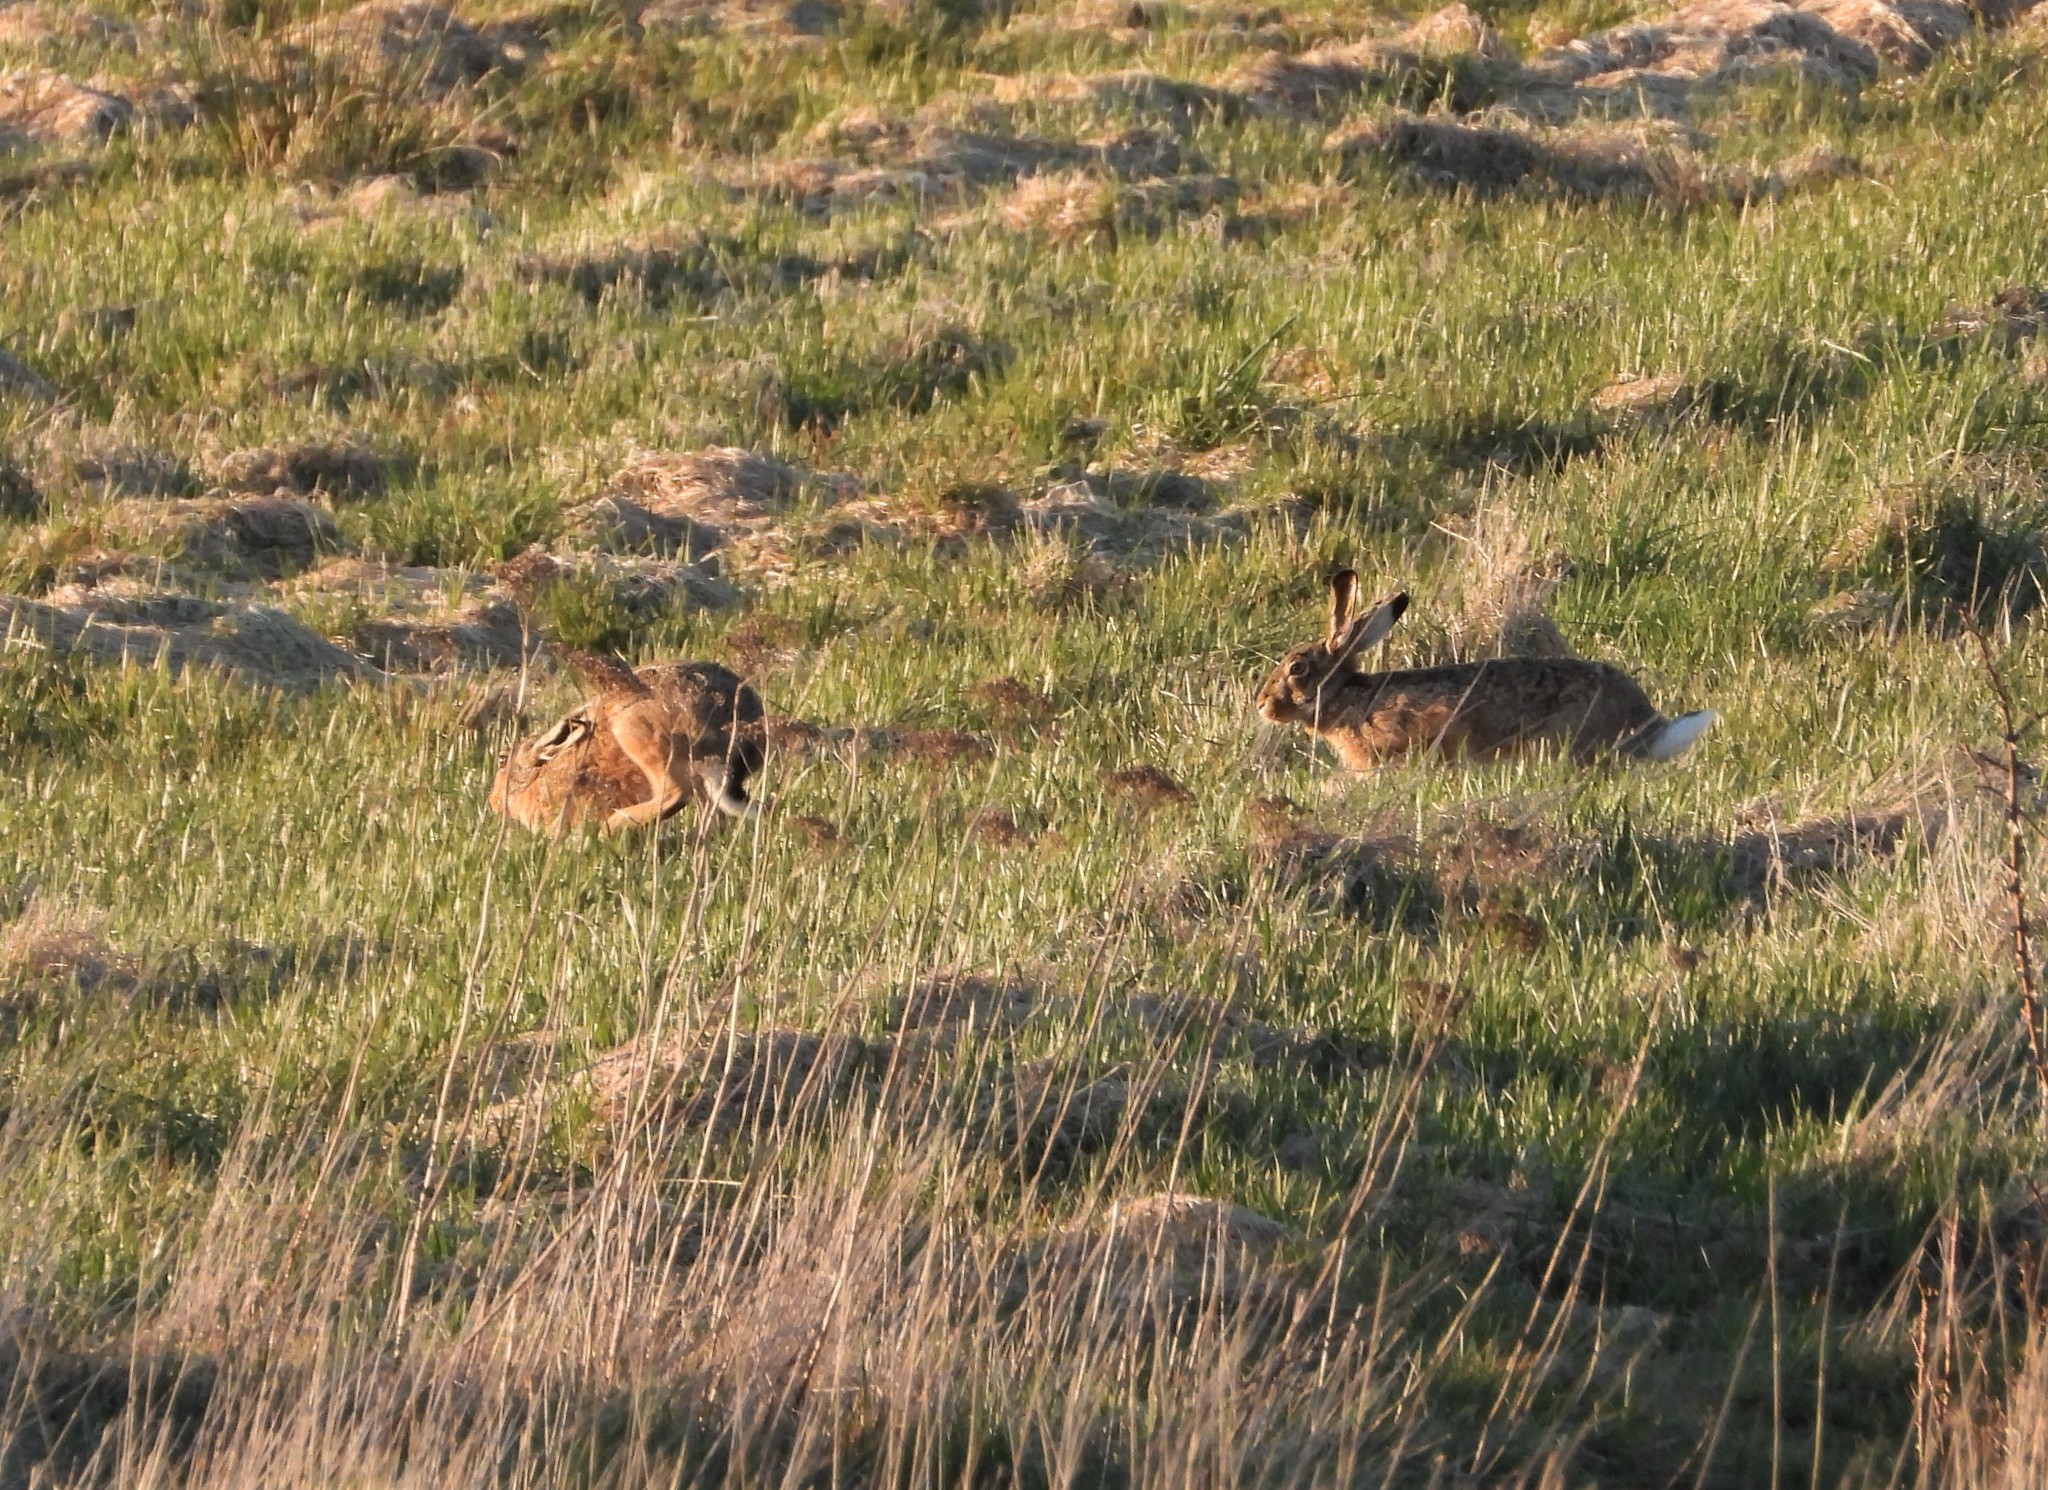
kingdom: Animalia
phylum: Chordata
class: Mammalia
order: Lagomorpha
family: Leporidae
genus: Lepus
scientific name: Lepus europaeus
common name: European hare
